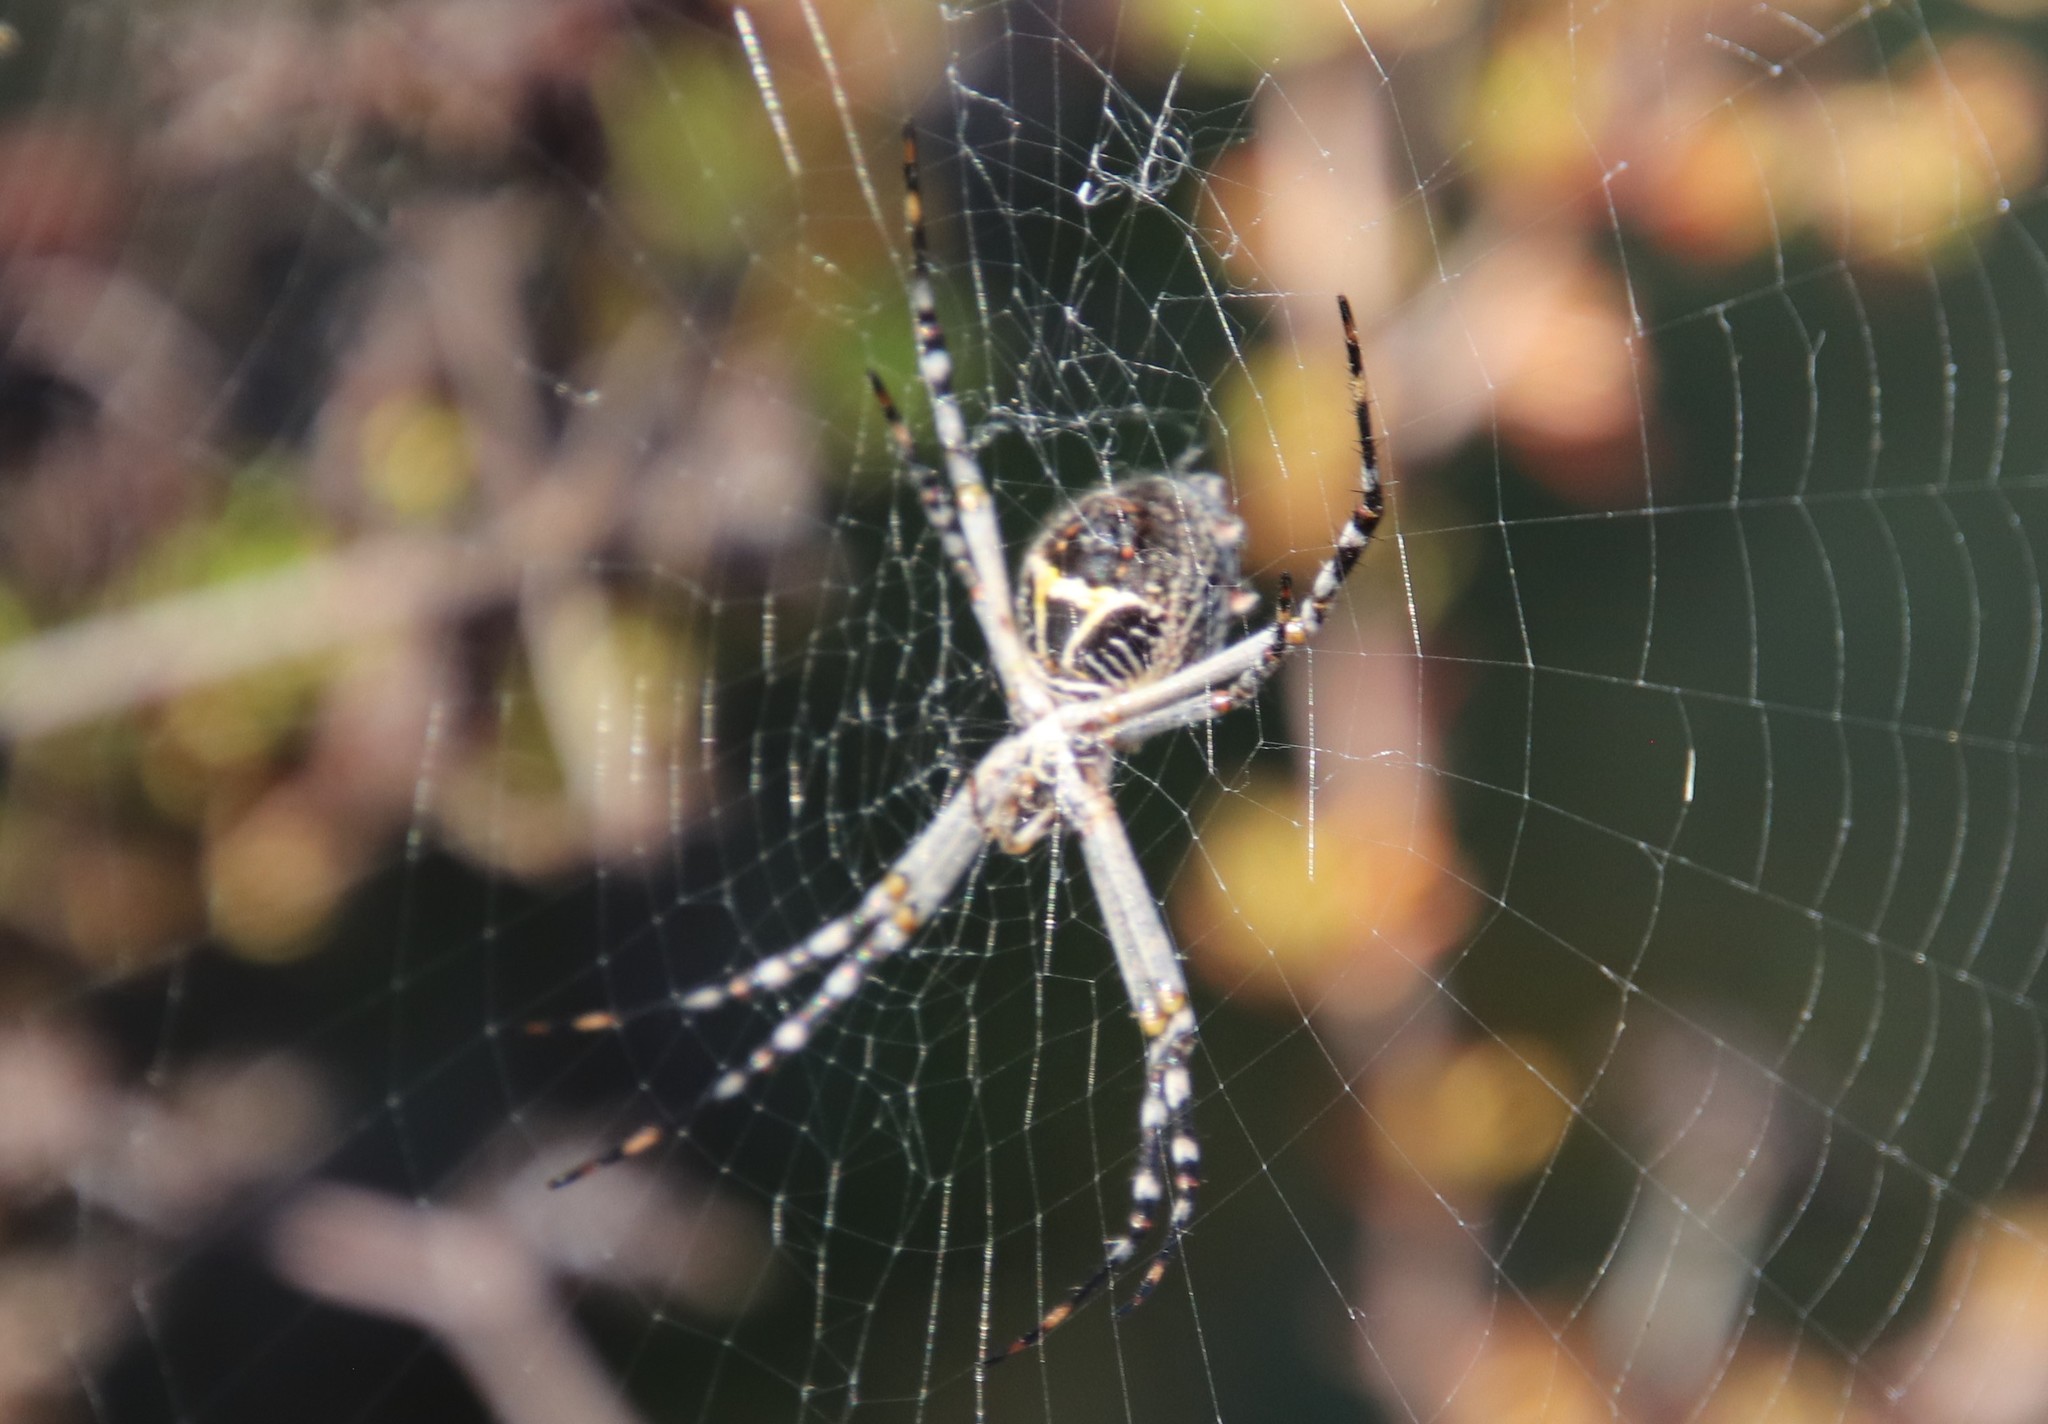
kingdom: Animalia
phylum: Arthropoda
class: Arachnida
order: Araneae
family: Araneidae
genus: Argiope
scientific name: Argiope argentata
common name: Orb weavers
